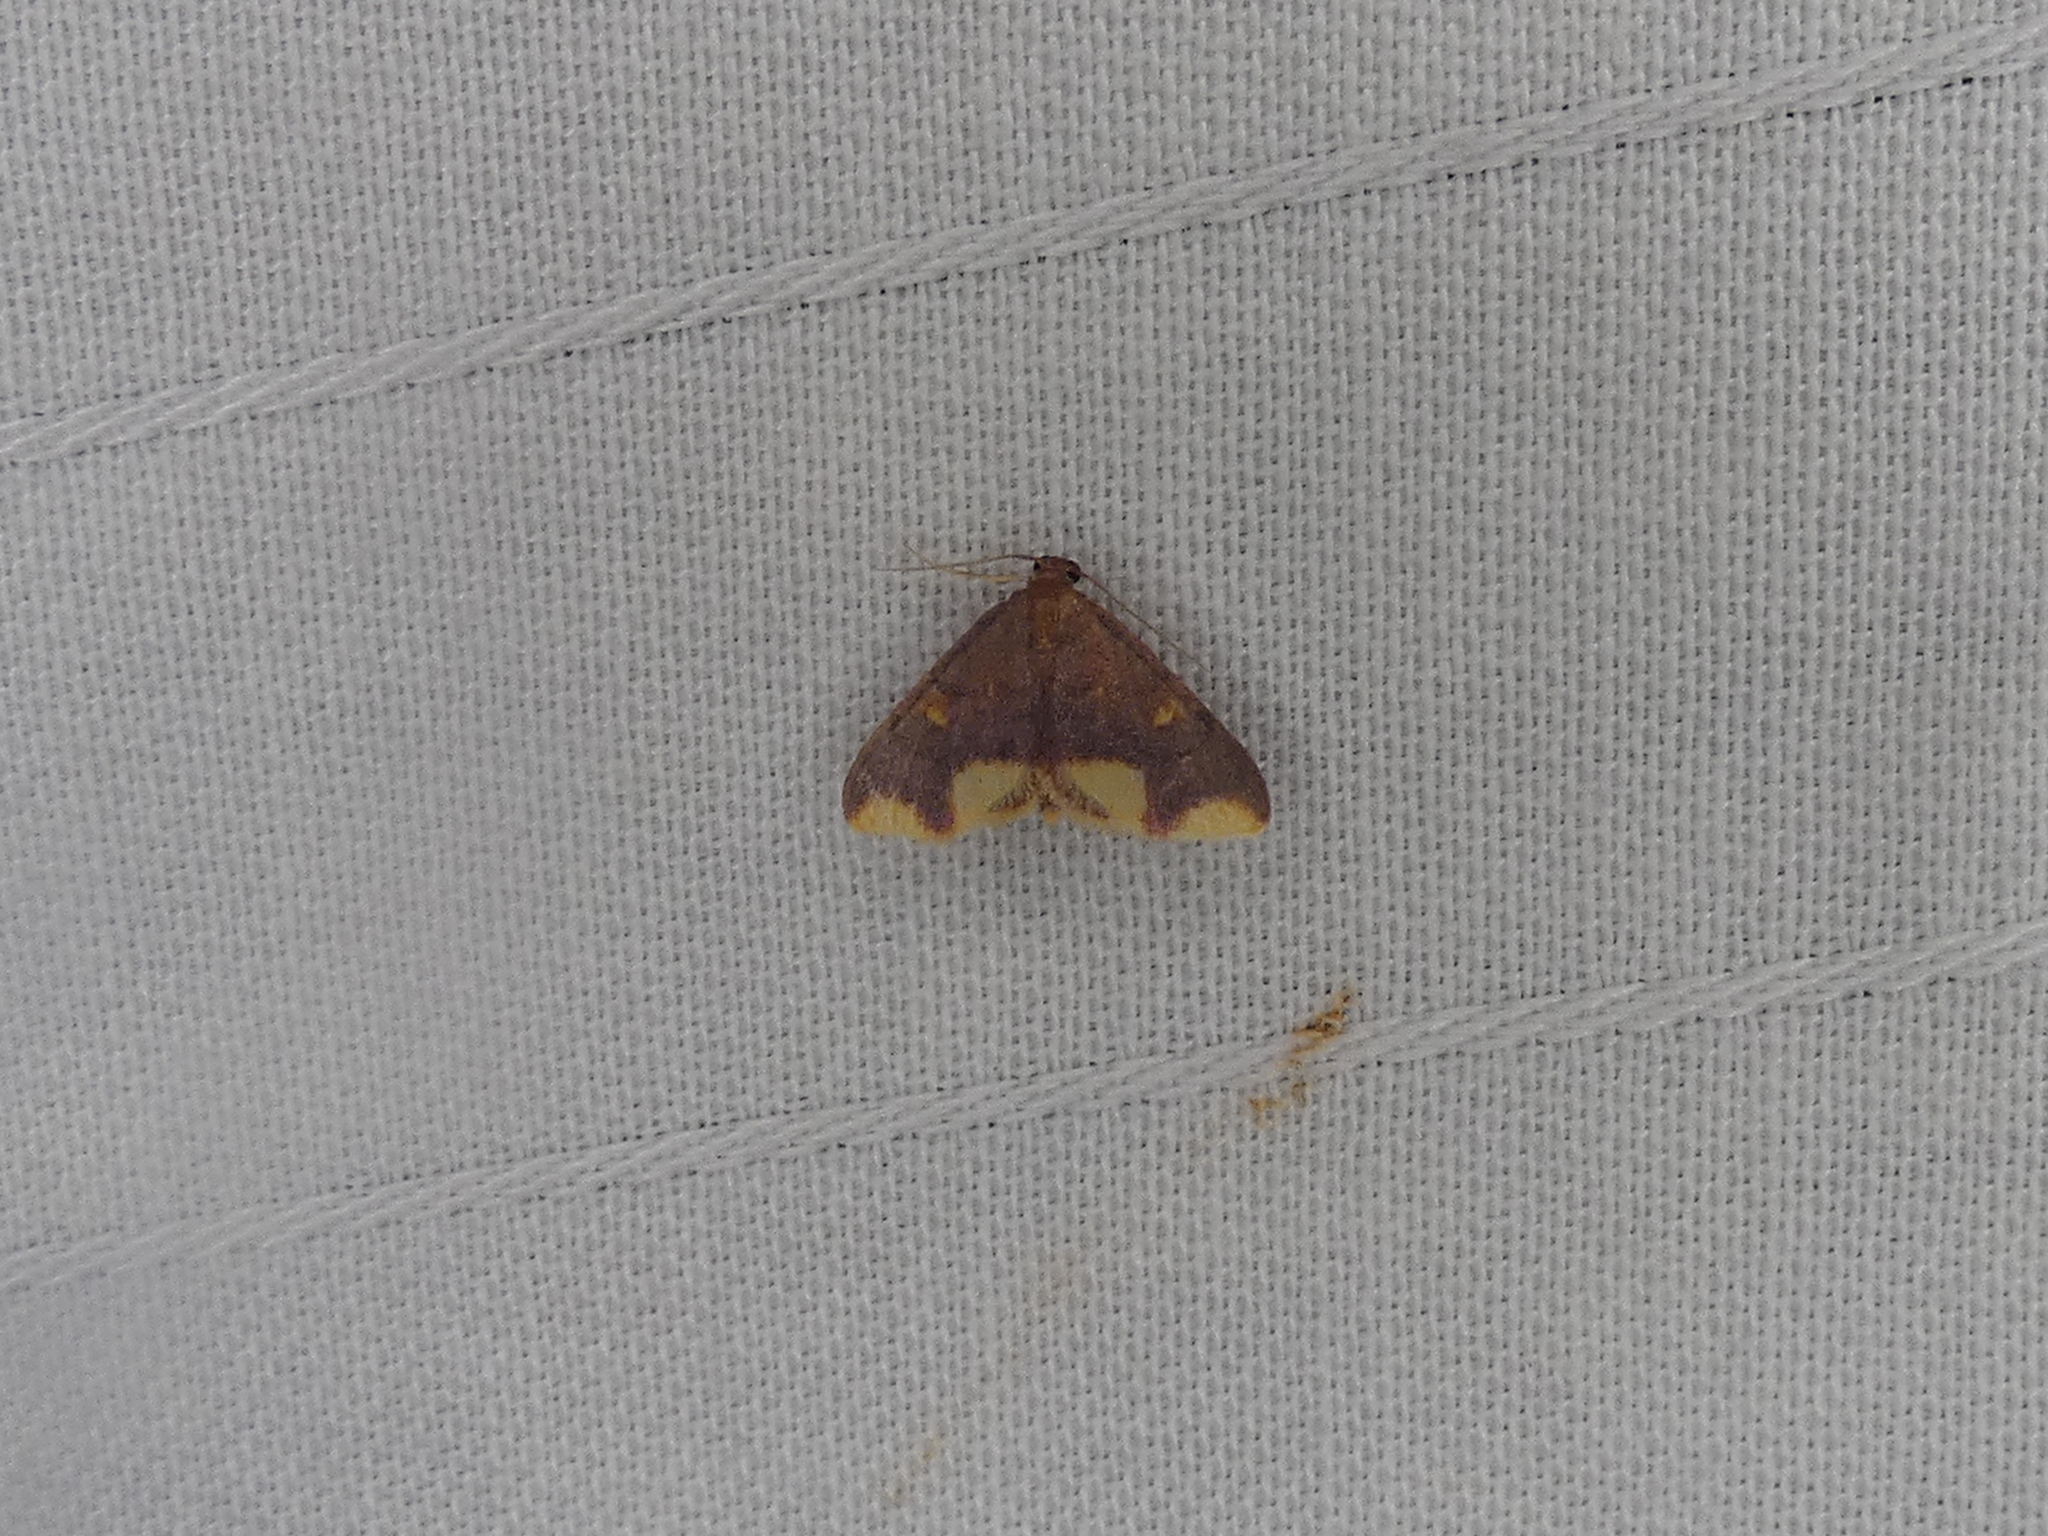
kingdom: Animalia
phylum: Arthropoda
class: Insecta
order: Lepidoptera
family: Geometridae
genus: Lophosis
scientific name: Lophosis labeculata
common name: Stained lophosis moth
